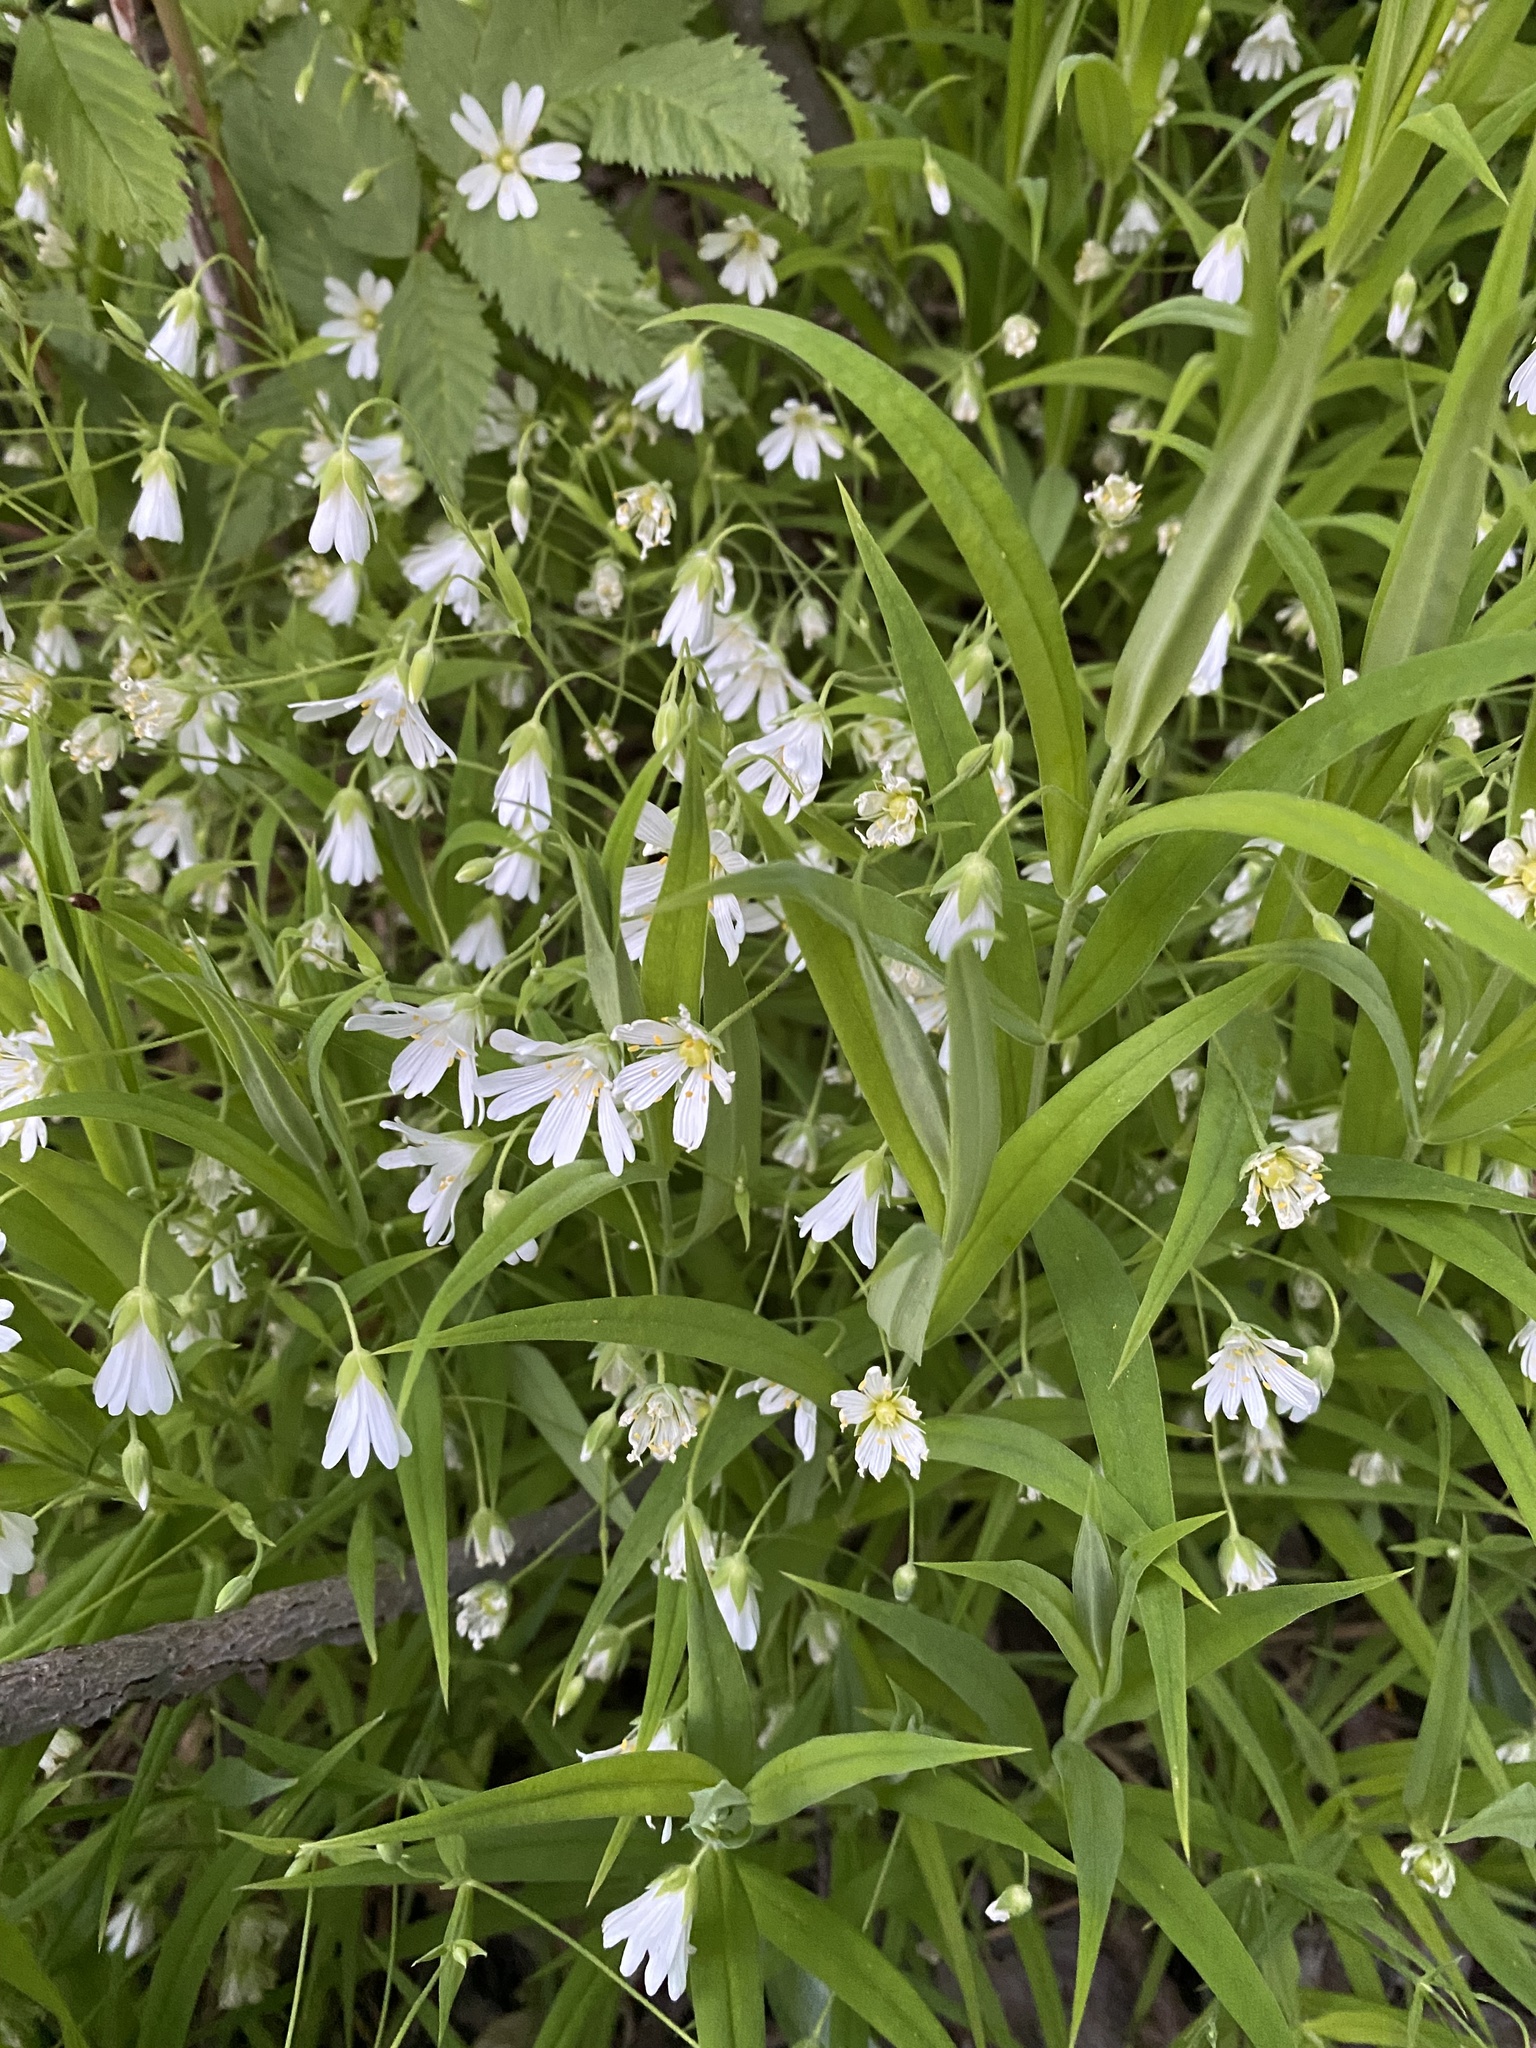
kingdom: Plantae
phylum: Tracheophyta
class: Magnoliopsida
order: Caryophyllales
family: Caryophyllaceae
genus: Rabelera
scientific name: Rabelera holostea
